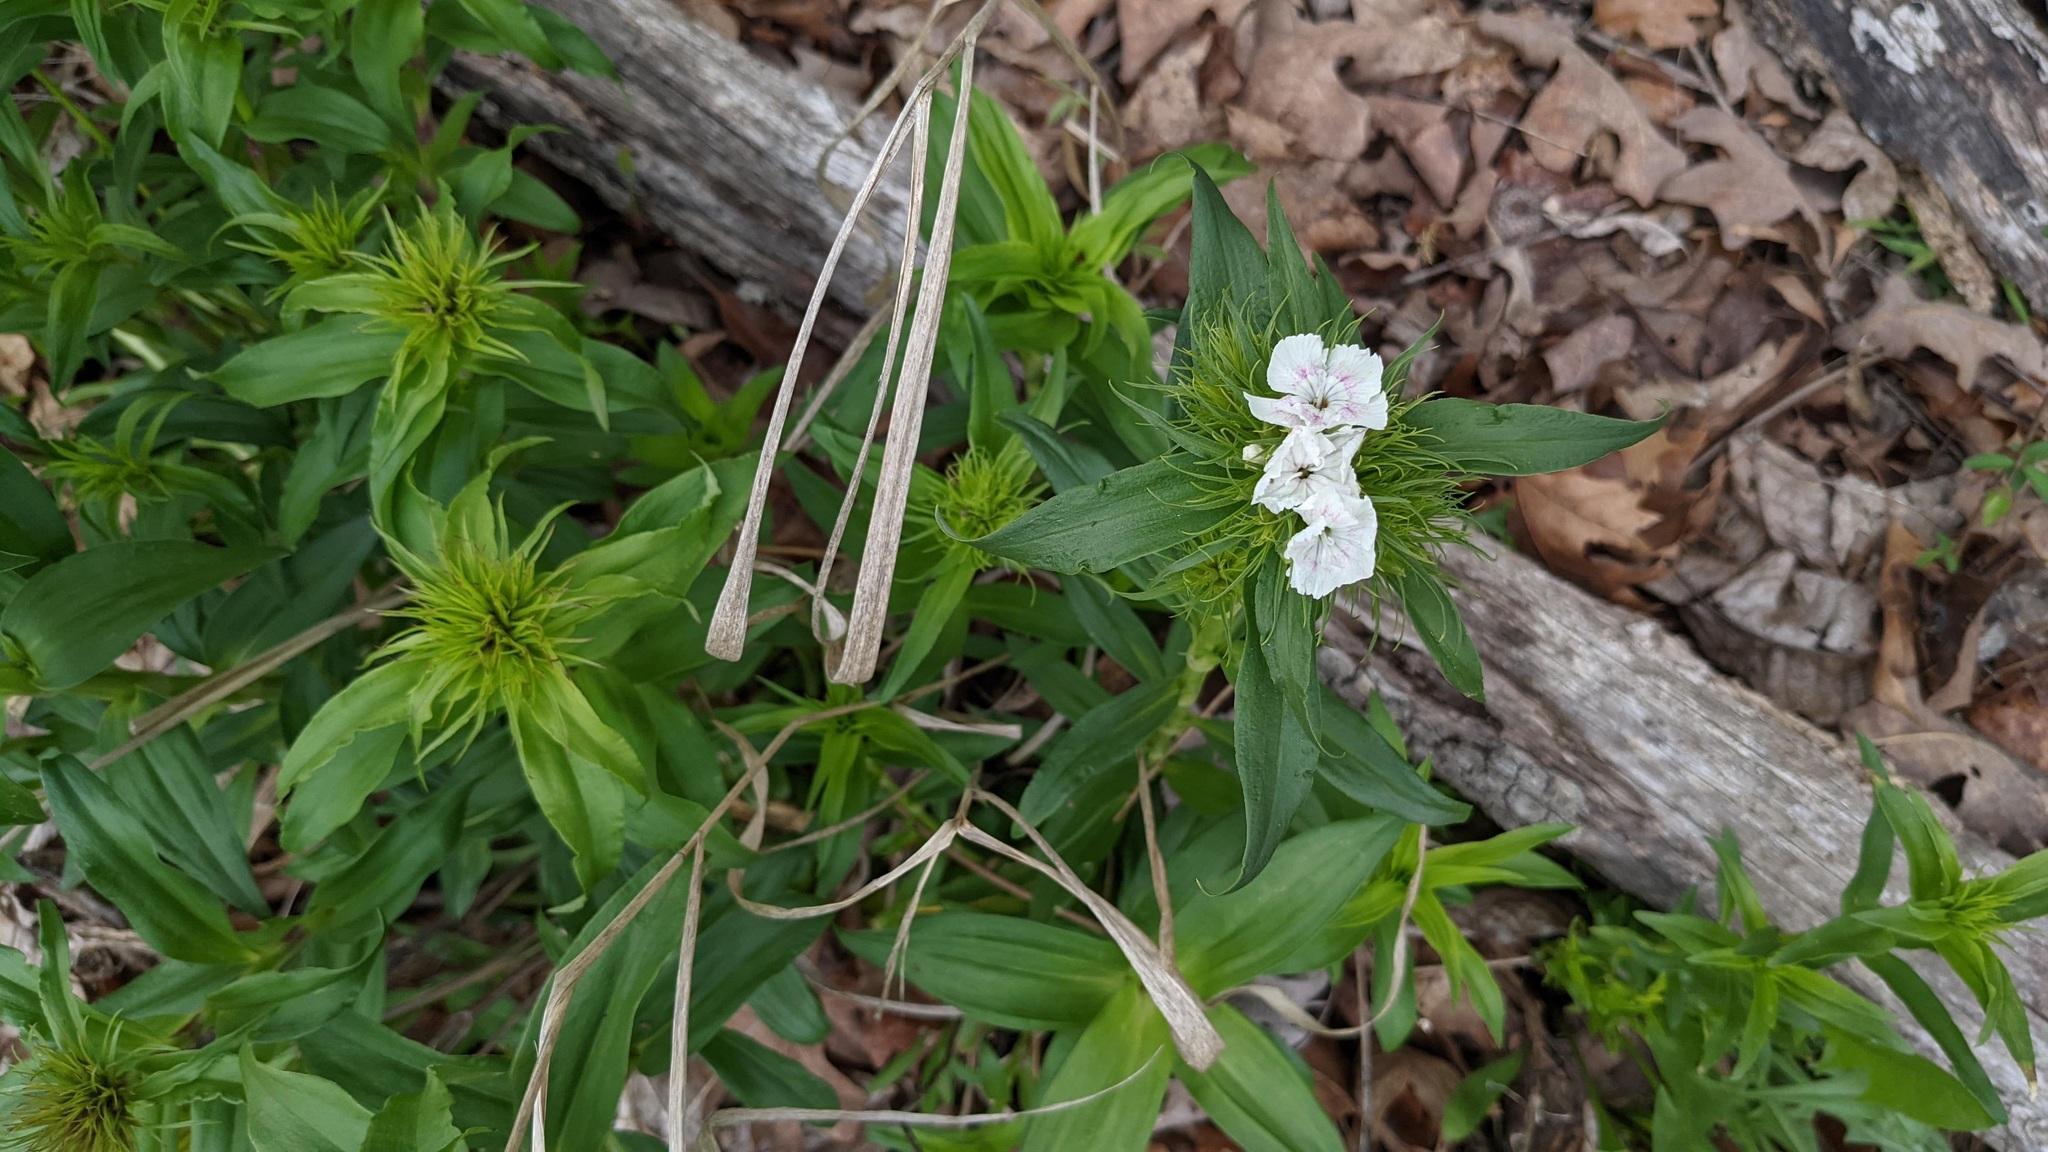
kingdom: Plantae
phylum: Tracheophyta
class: Magnoliopsida
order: Caryophyllales
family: Caryophyllaceae
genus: Dianthus
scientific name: Dianthus barbatus
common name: Sweet-william
